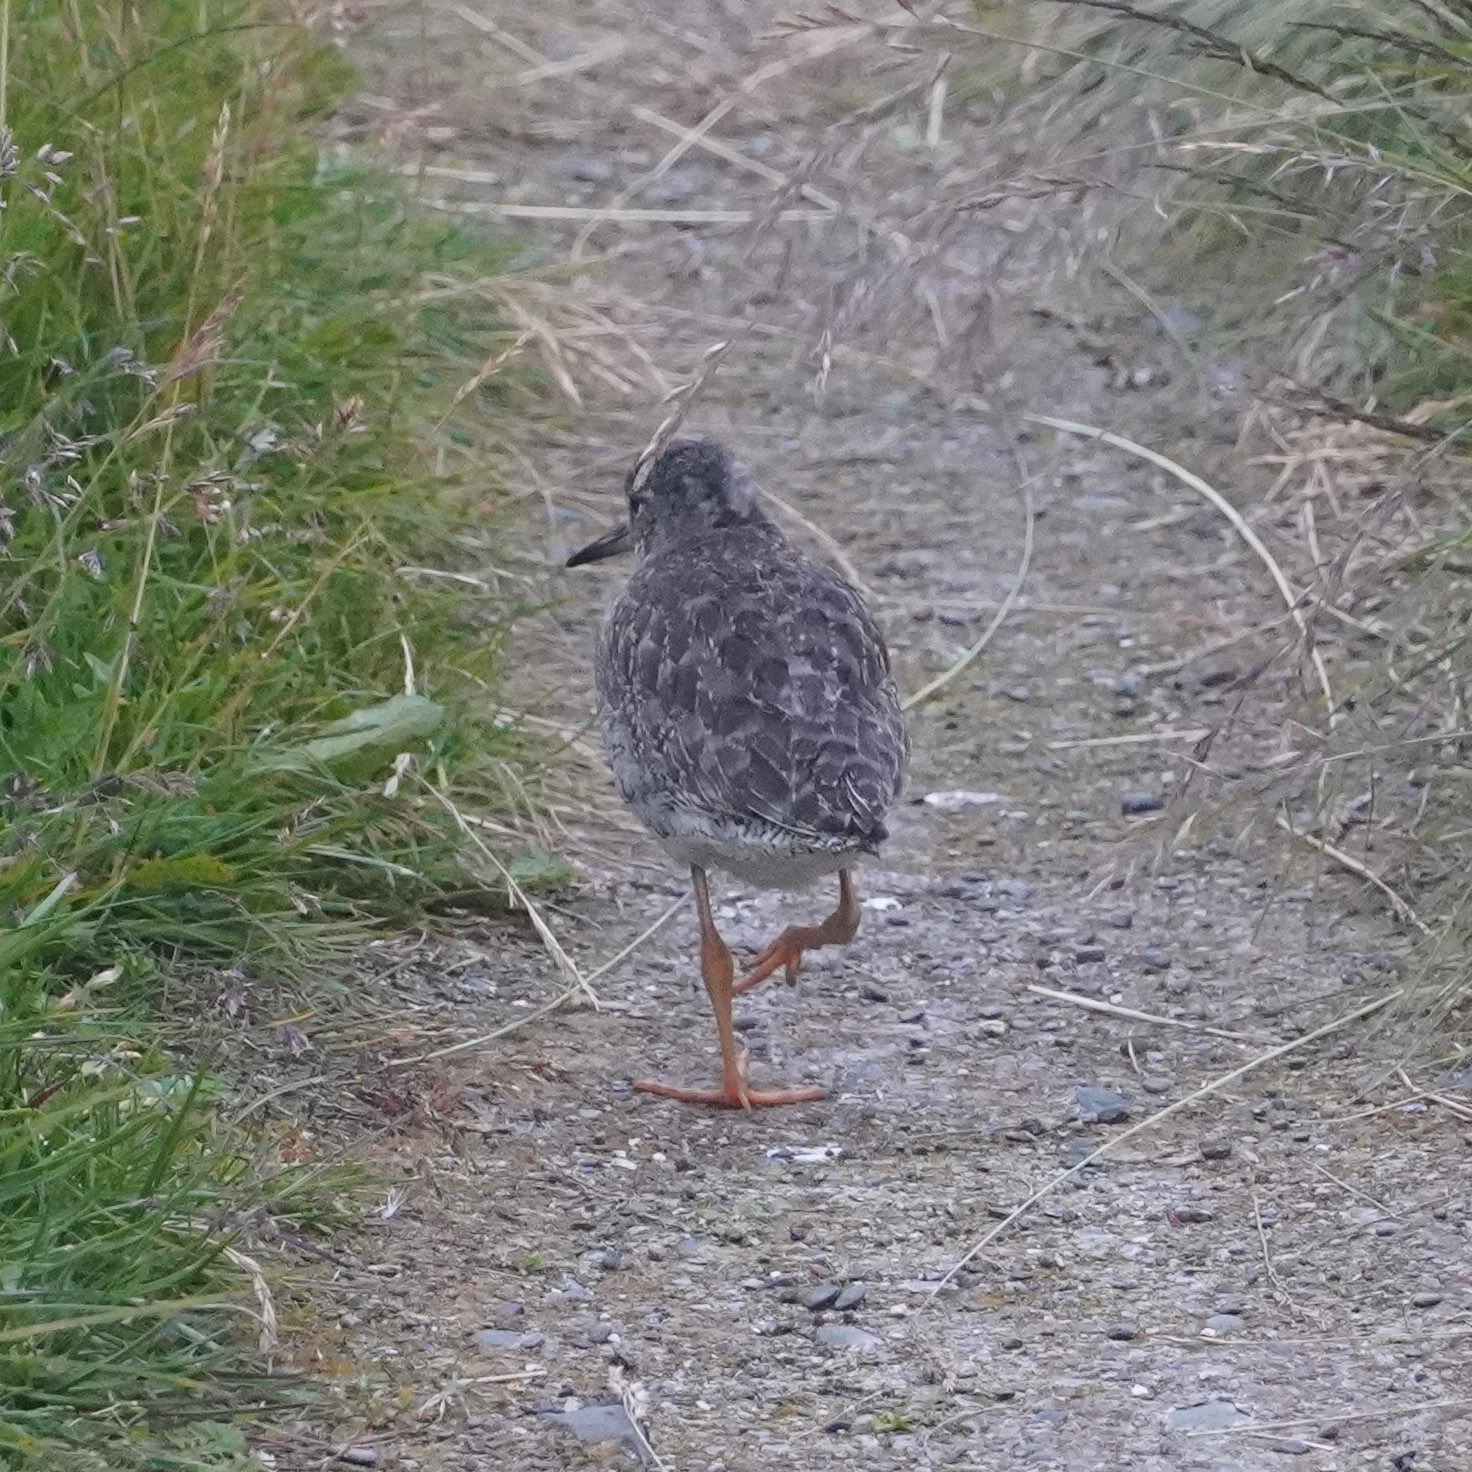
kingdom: Animalia
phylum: Chordata
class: Aves
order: Charadriiformes
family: Scolopacidae
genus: Tringa
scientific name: Tringa totanus
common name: Common redshank
